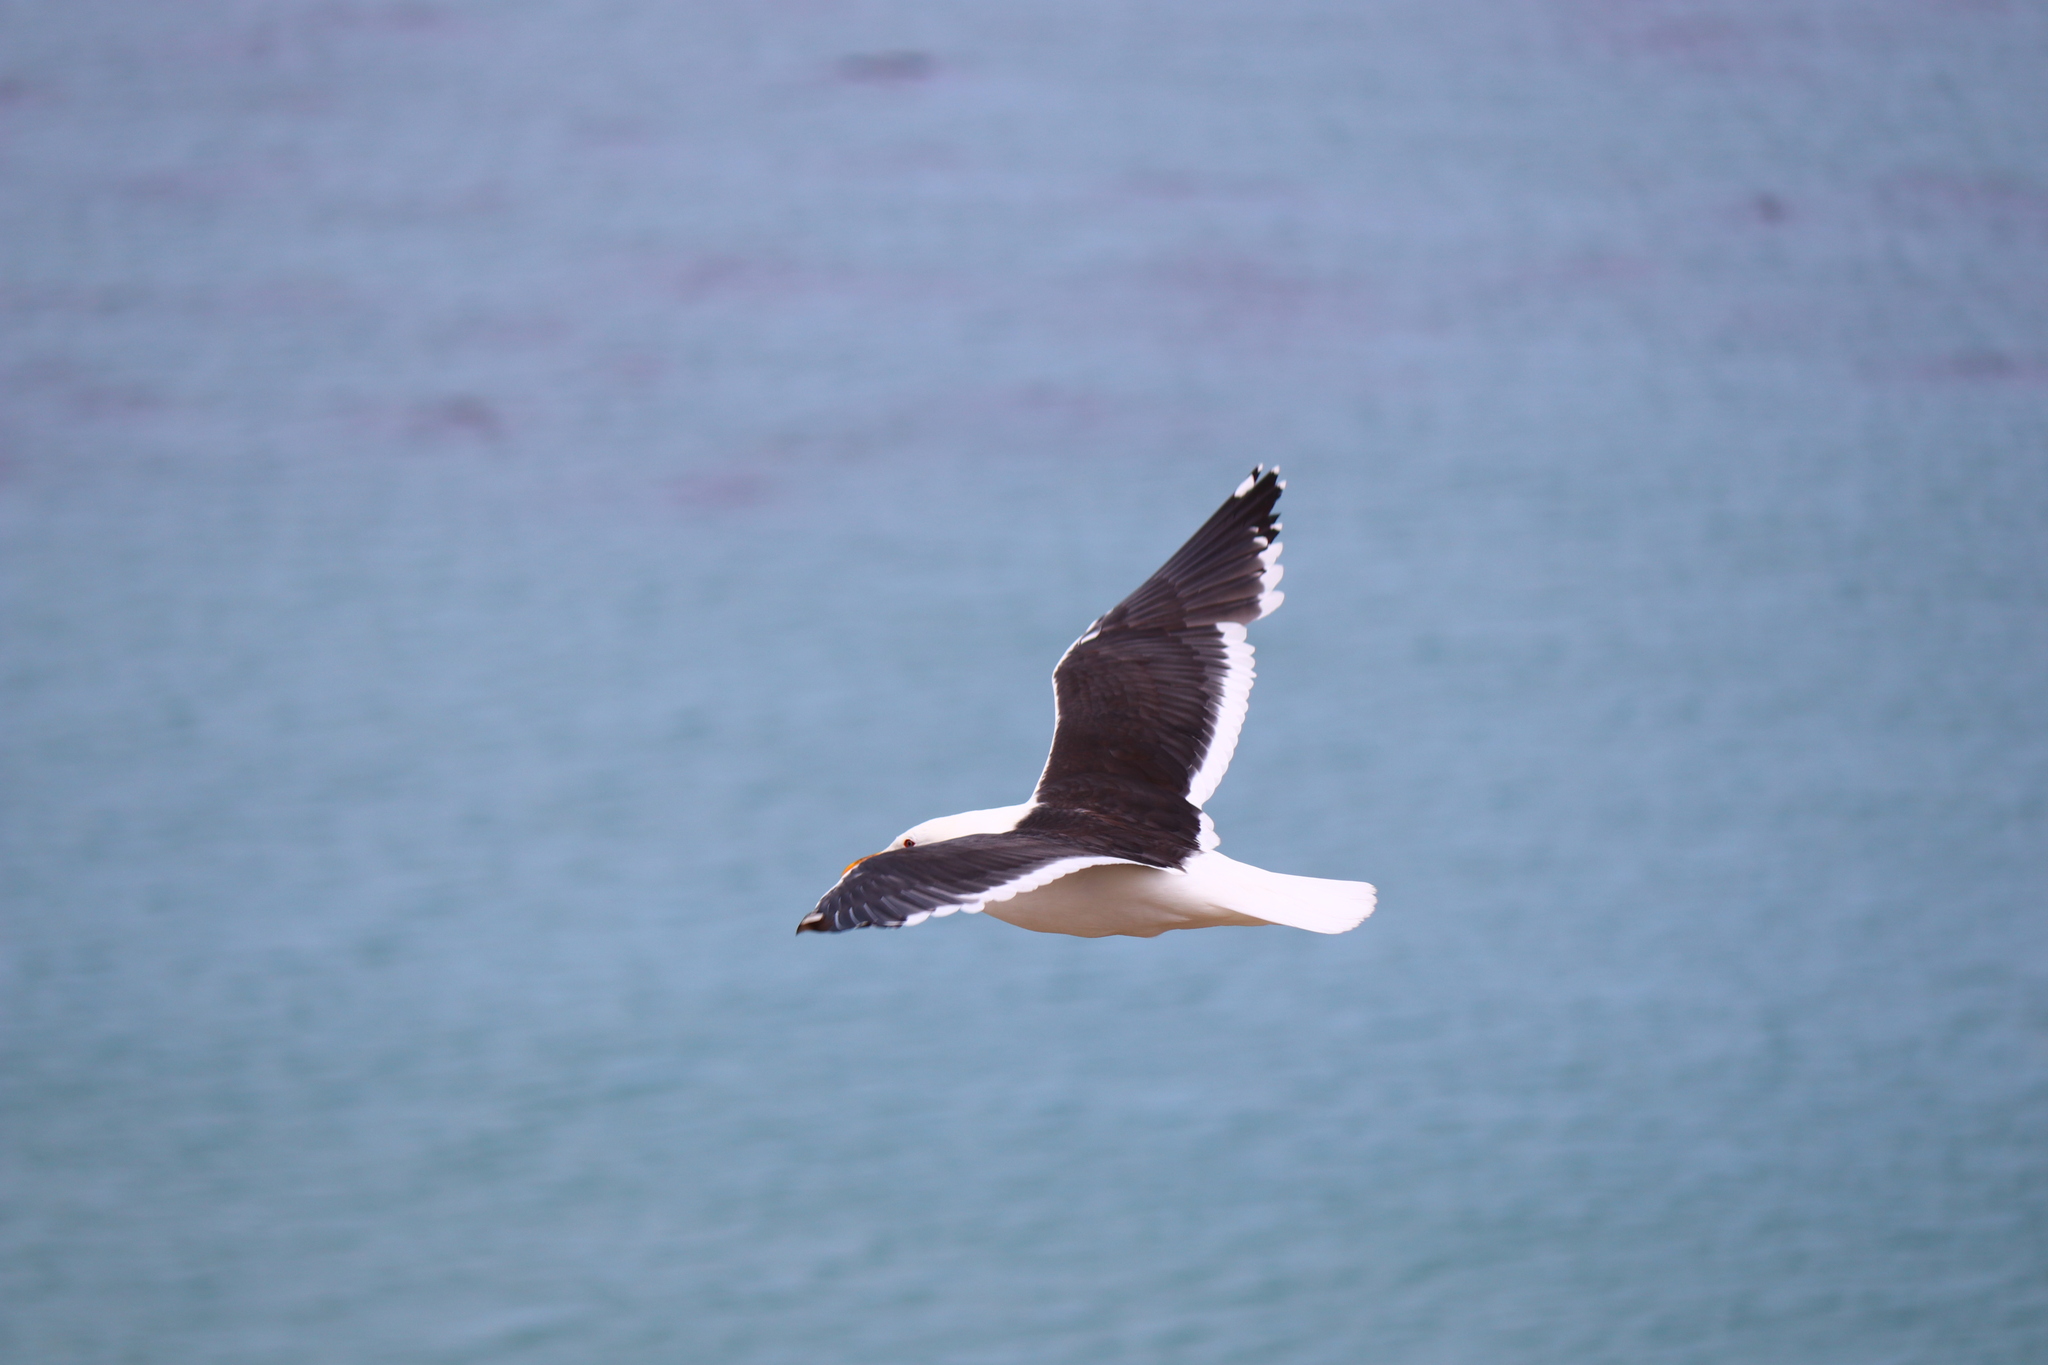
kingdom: Animalia
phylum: Chordata
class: Aves
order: Charadriiformes
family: Laridae
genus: Larus
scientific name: Larus dominicanus
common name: Kelp gull
